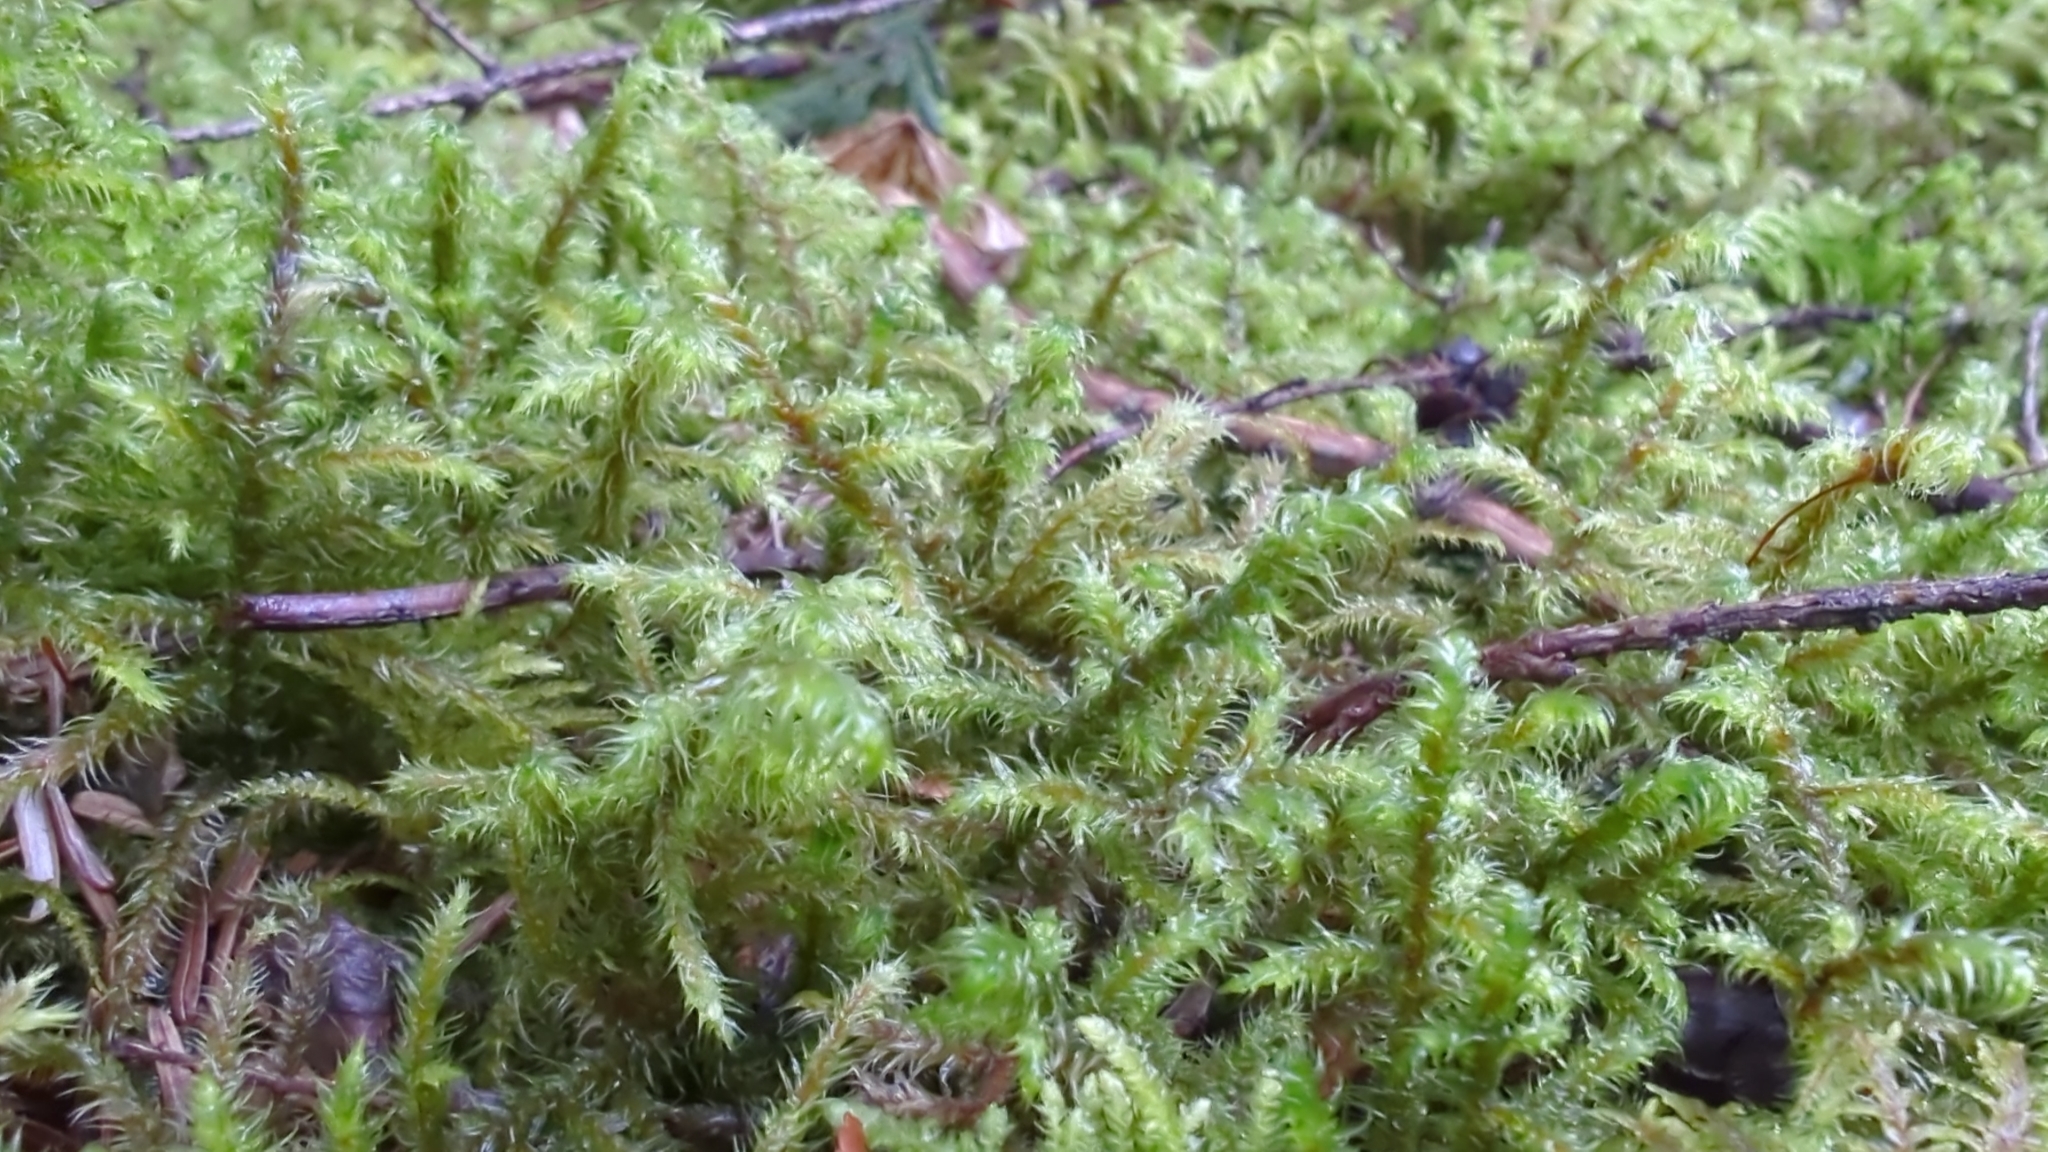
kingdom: Plantae
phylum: Bryophyta
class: Bryopsida
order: Hypnales
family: Hylocomiaceae
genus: Rhytidiadelphus
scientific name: Rhytidiadelphus loreus
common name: Lanky moss
